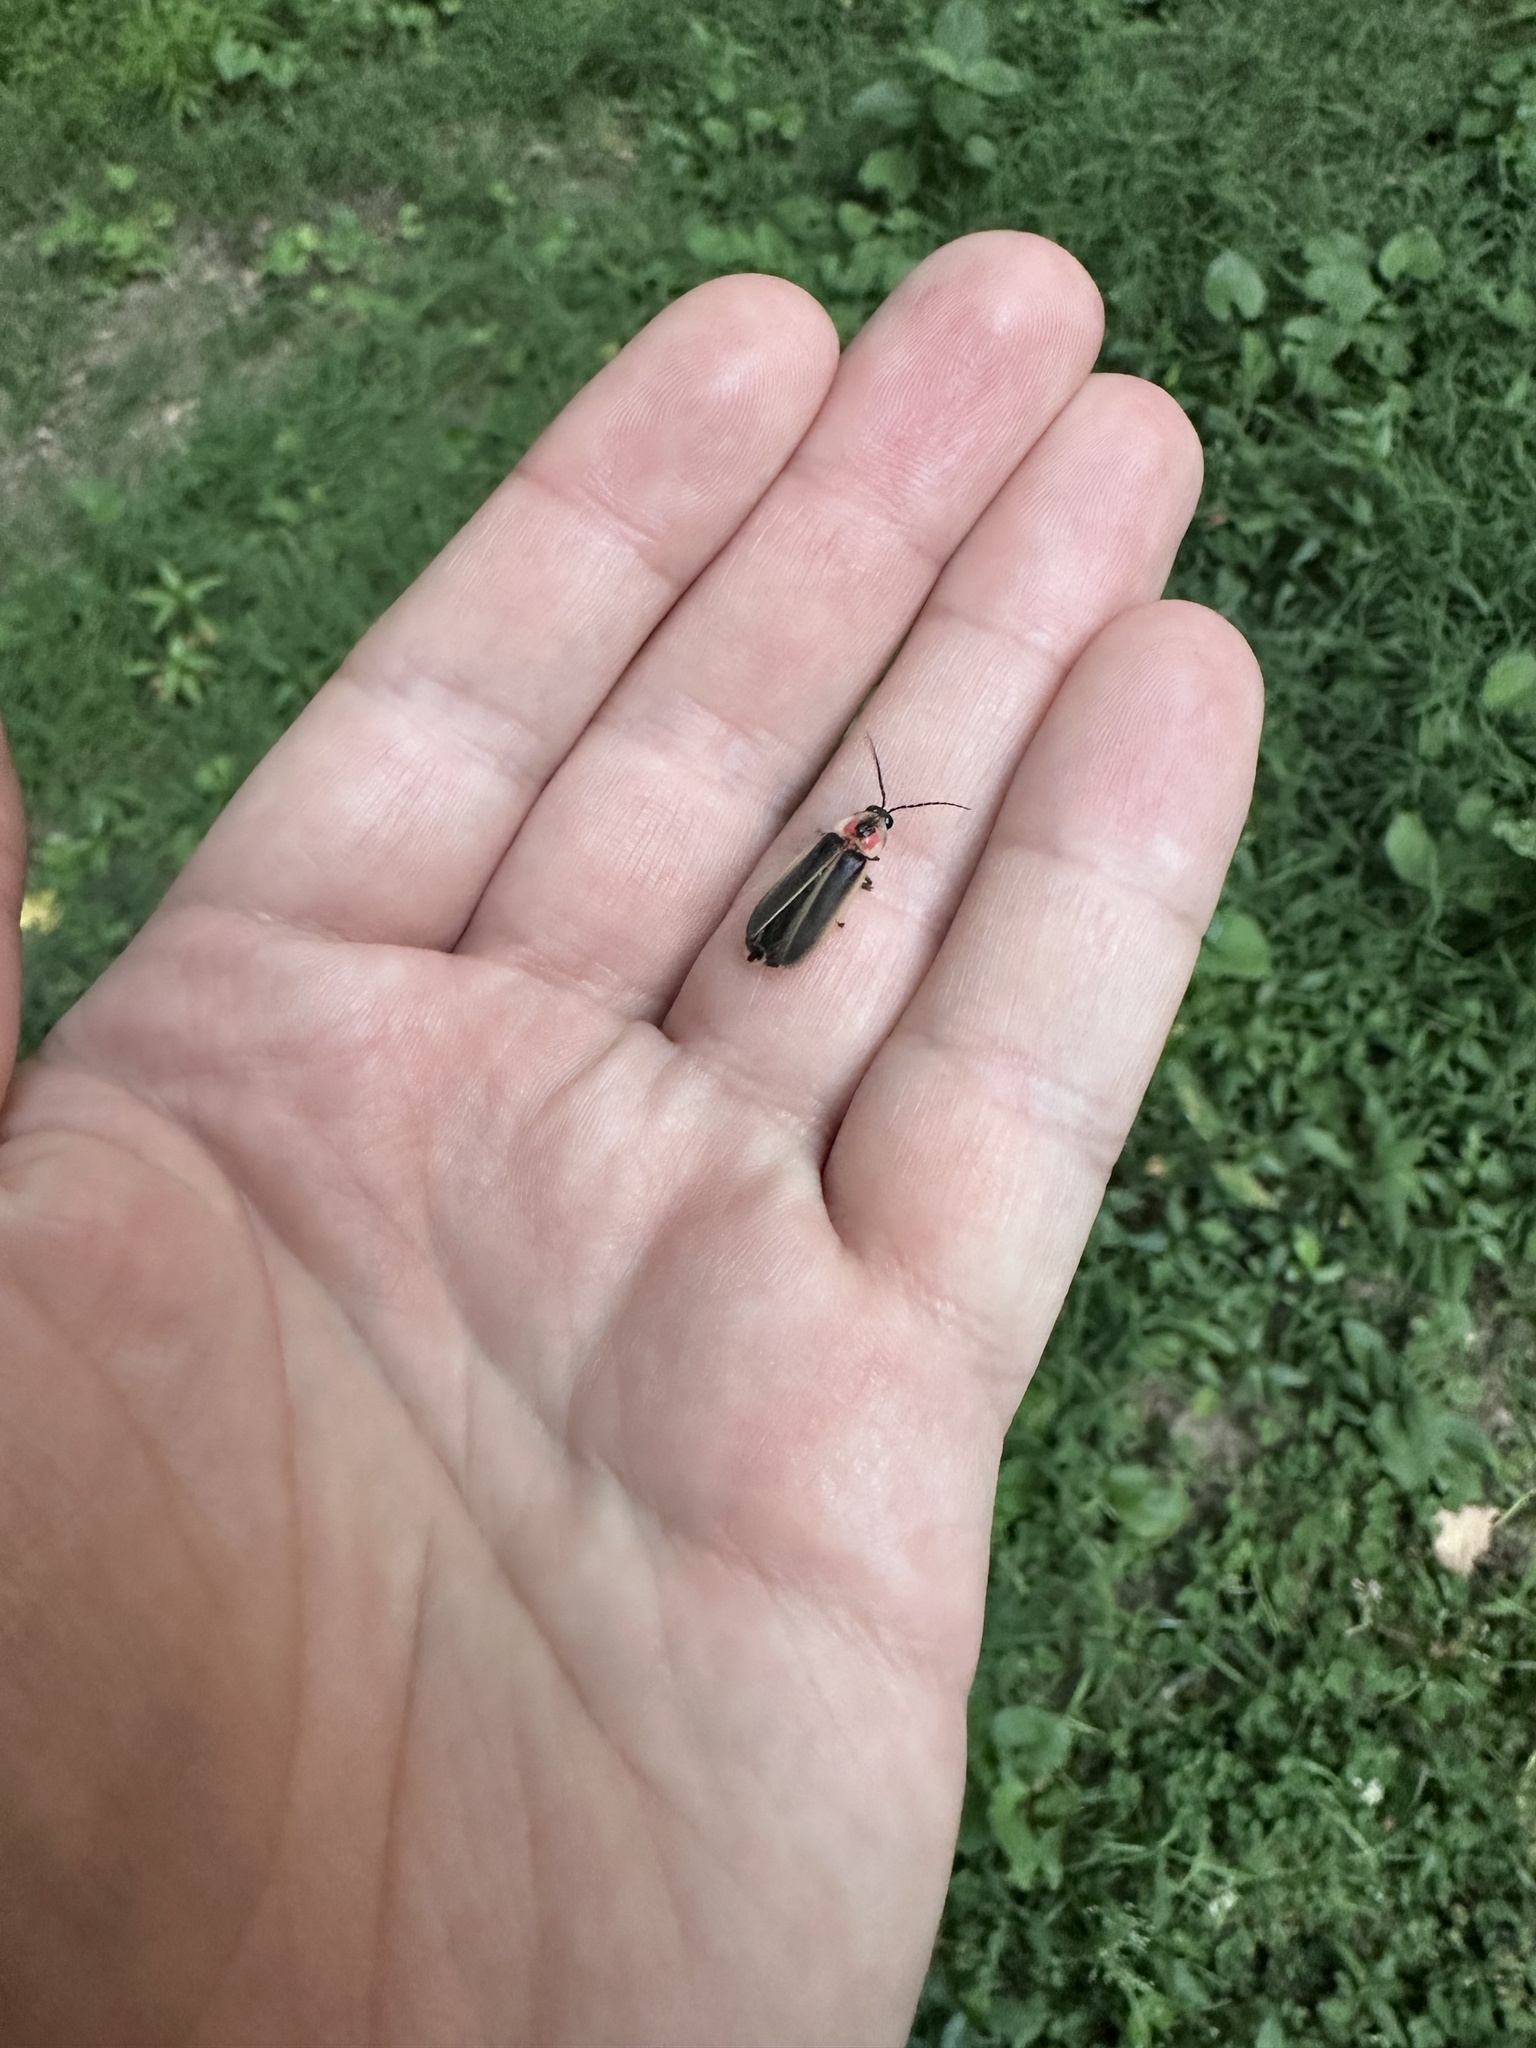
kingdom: Animalia
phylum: Arthropoda
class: Insecta
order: Coleoptera
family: Lampyridae
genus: Photinus
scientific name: Photinus pyralis
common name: Big dipper firefly
